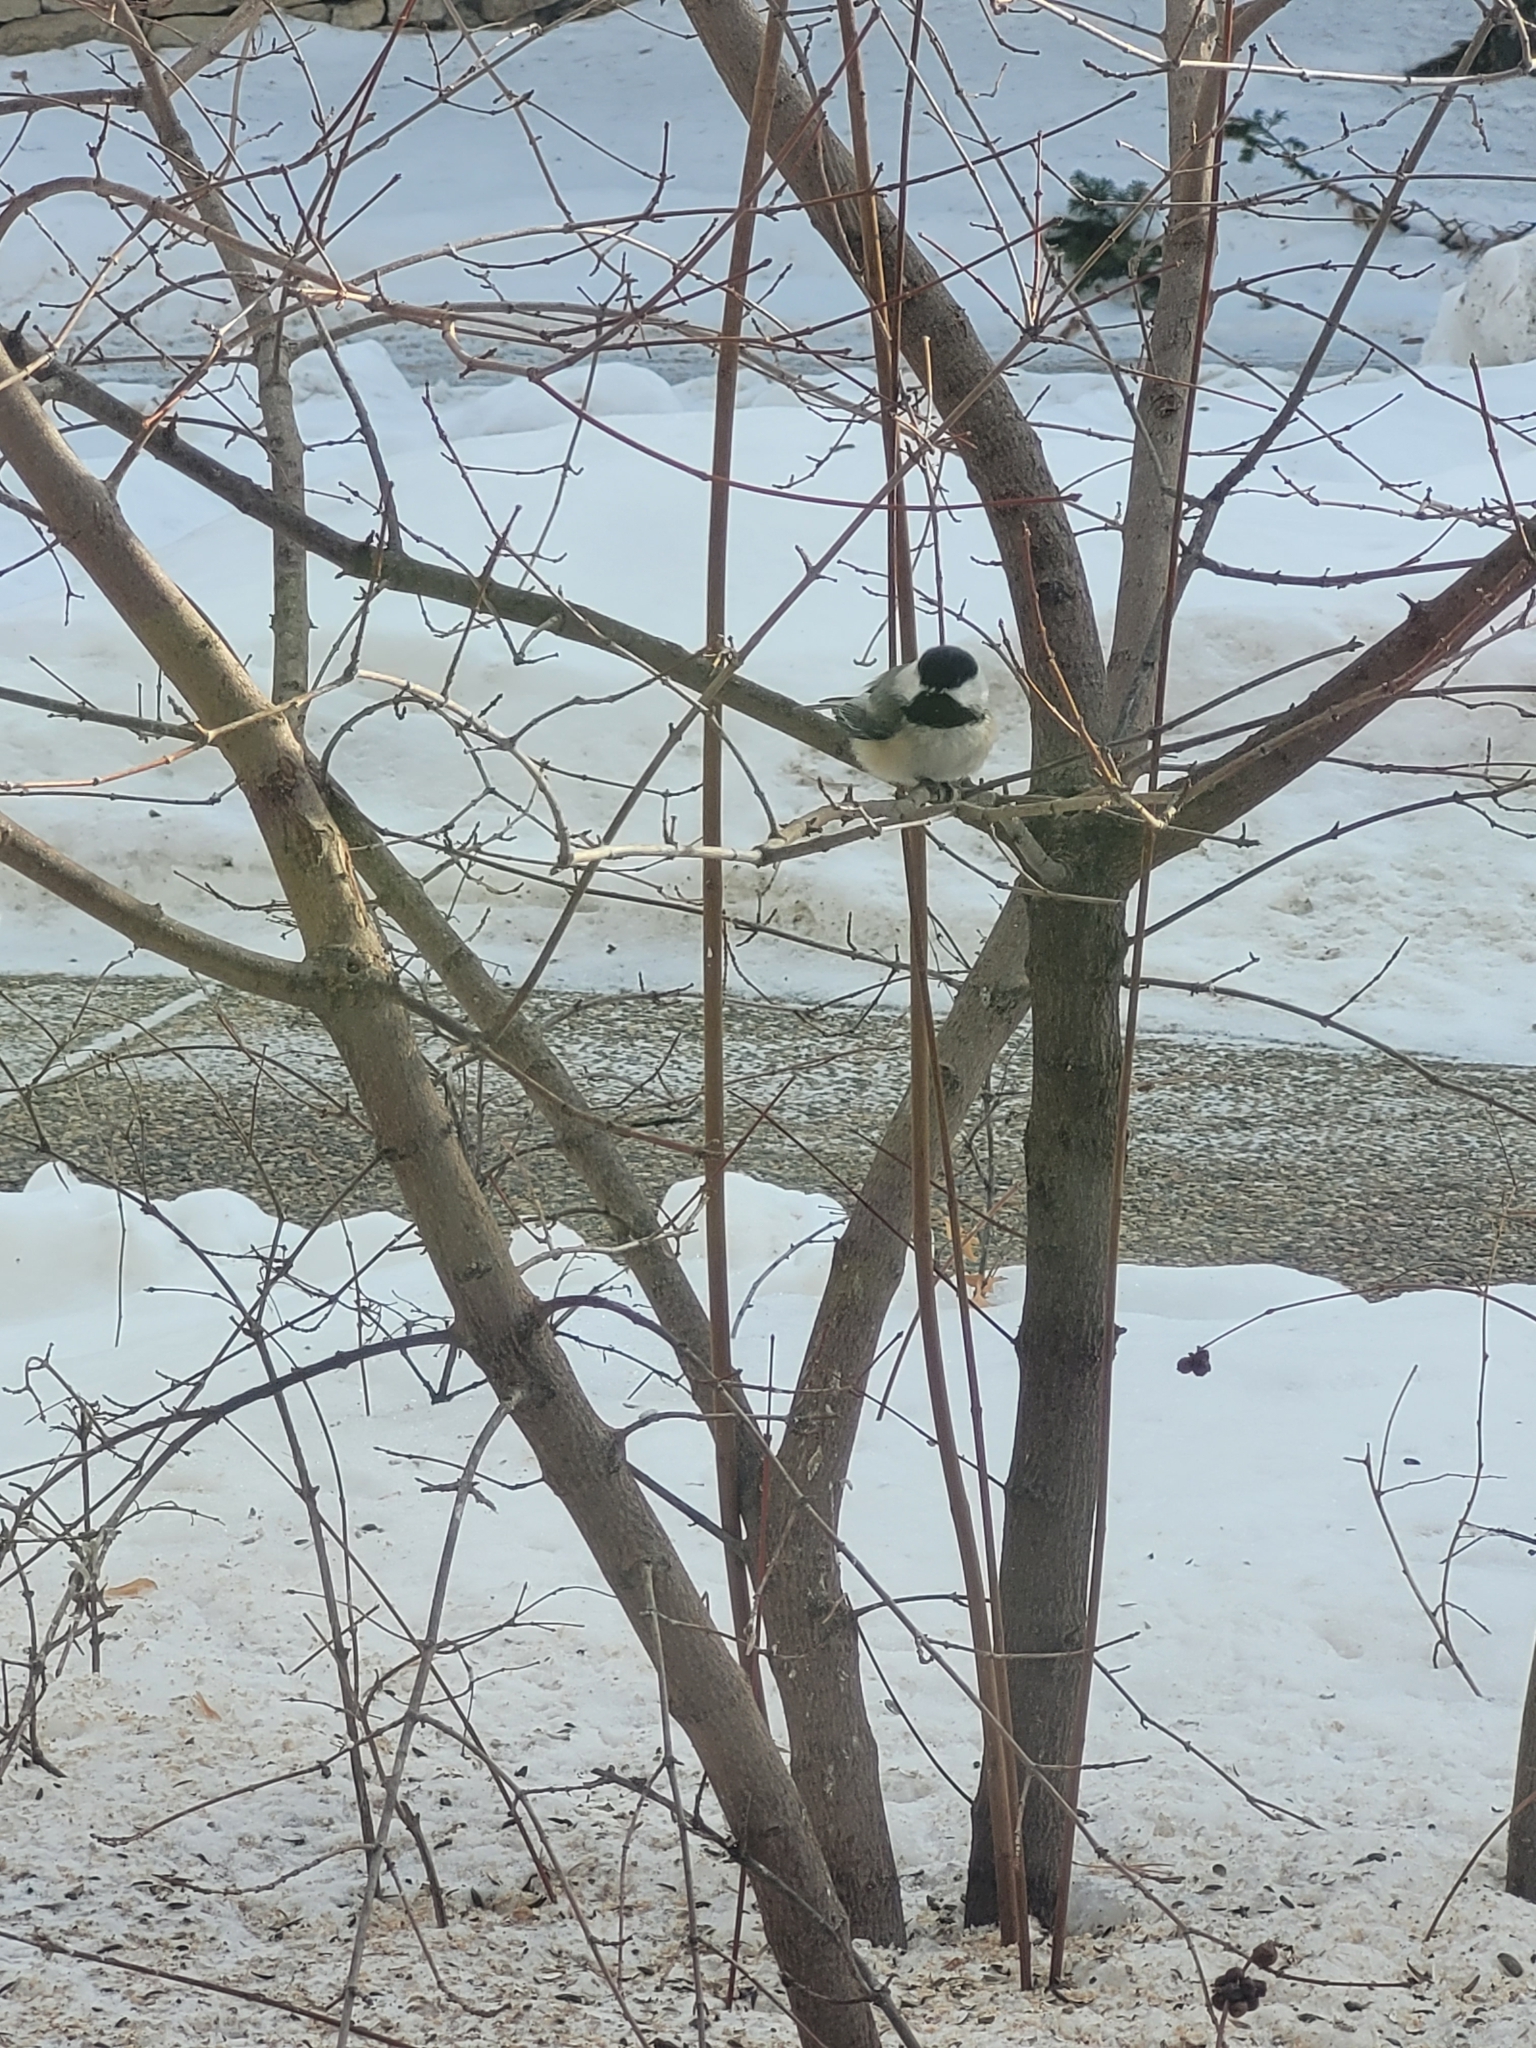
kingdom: Animalia
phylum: Chordata
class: Aves
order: Passeriformes
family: Paridae
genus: Poecile
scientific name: Poecile atricapillus
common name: Black-capped chickadee
